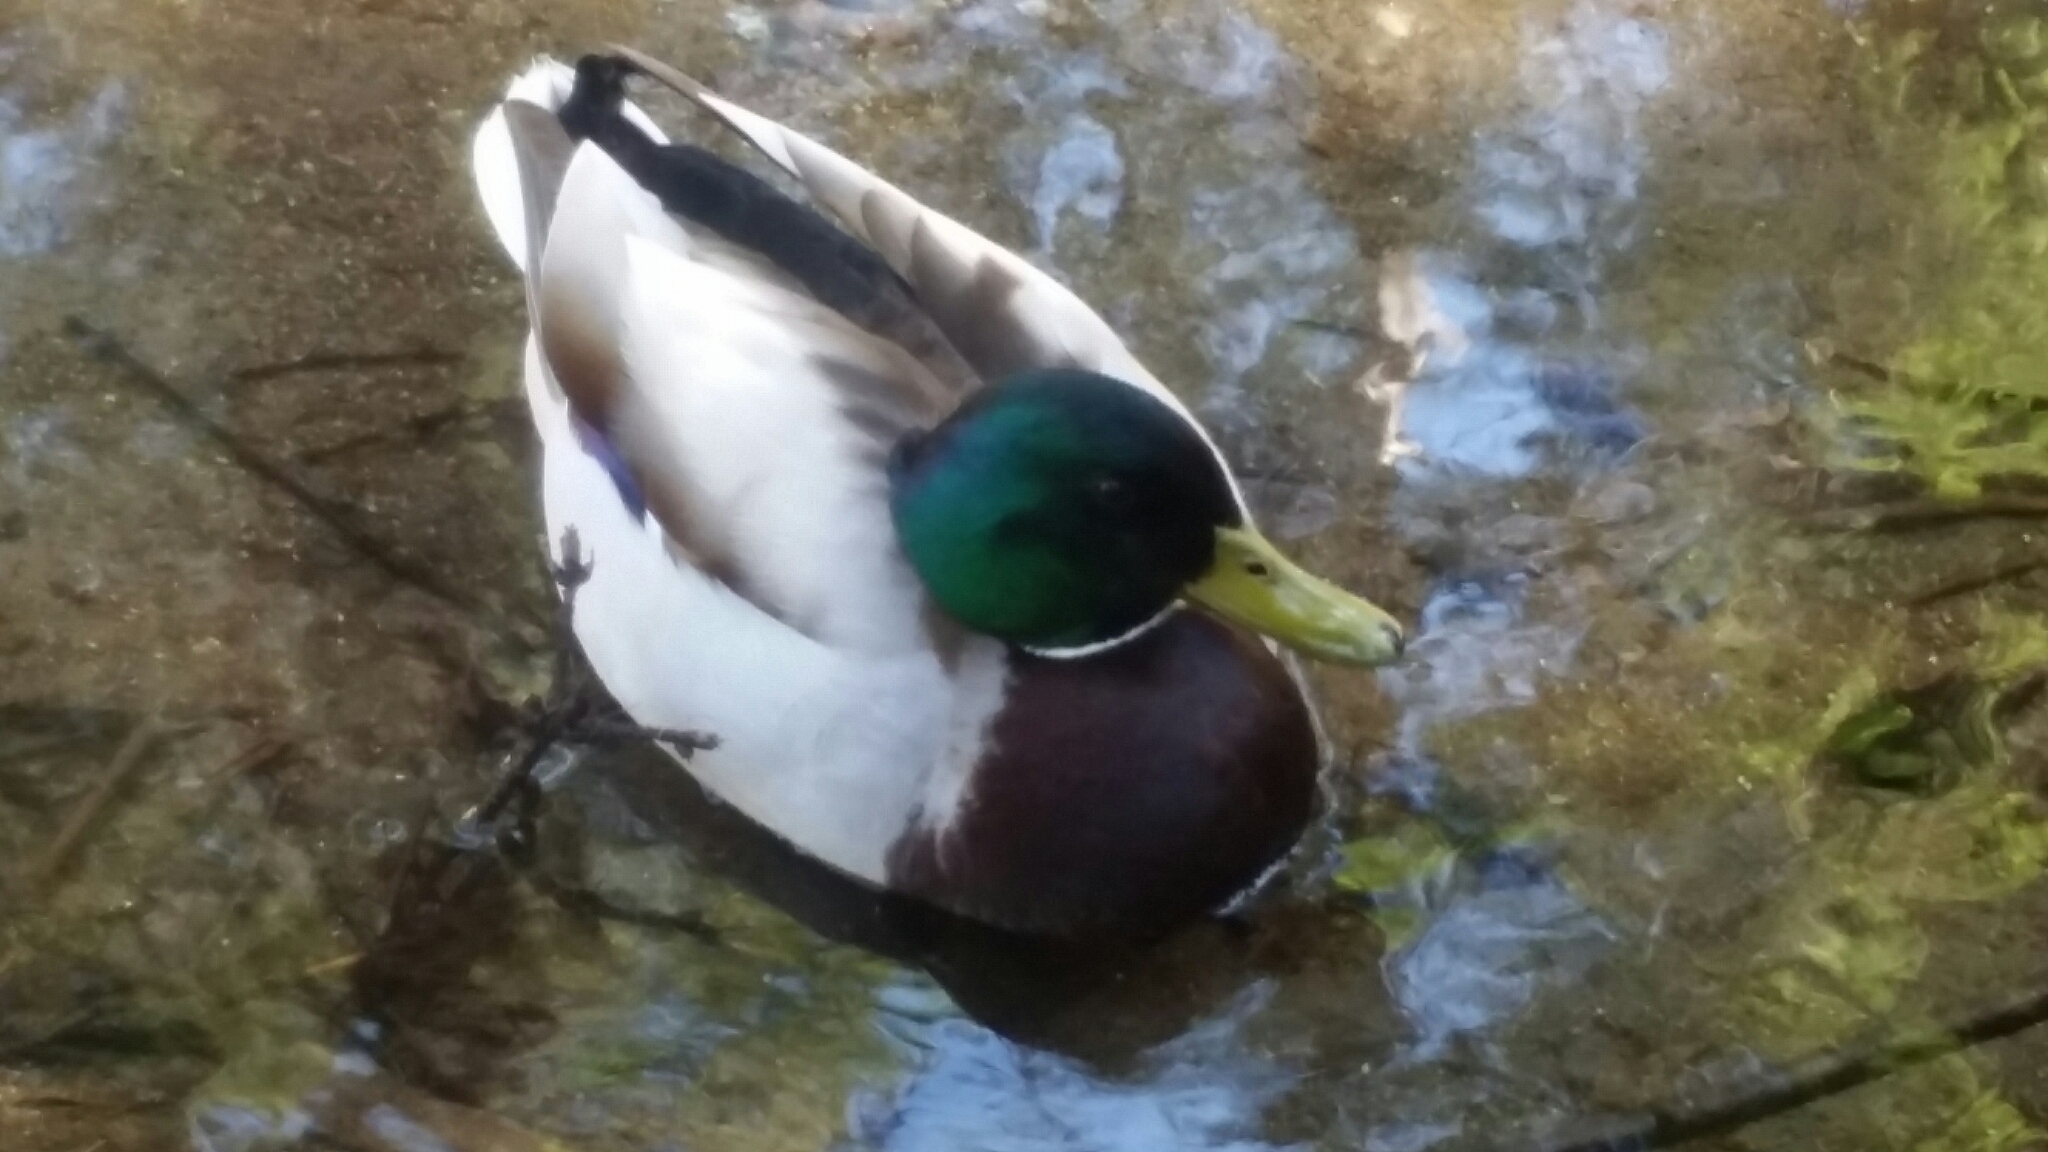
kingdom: Animalia
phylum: Chordata
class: Aves
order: Anseriformes
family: Anatidae
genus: Anas
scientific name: Anas platyrhynchos
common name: Mallard
